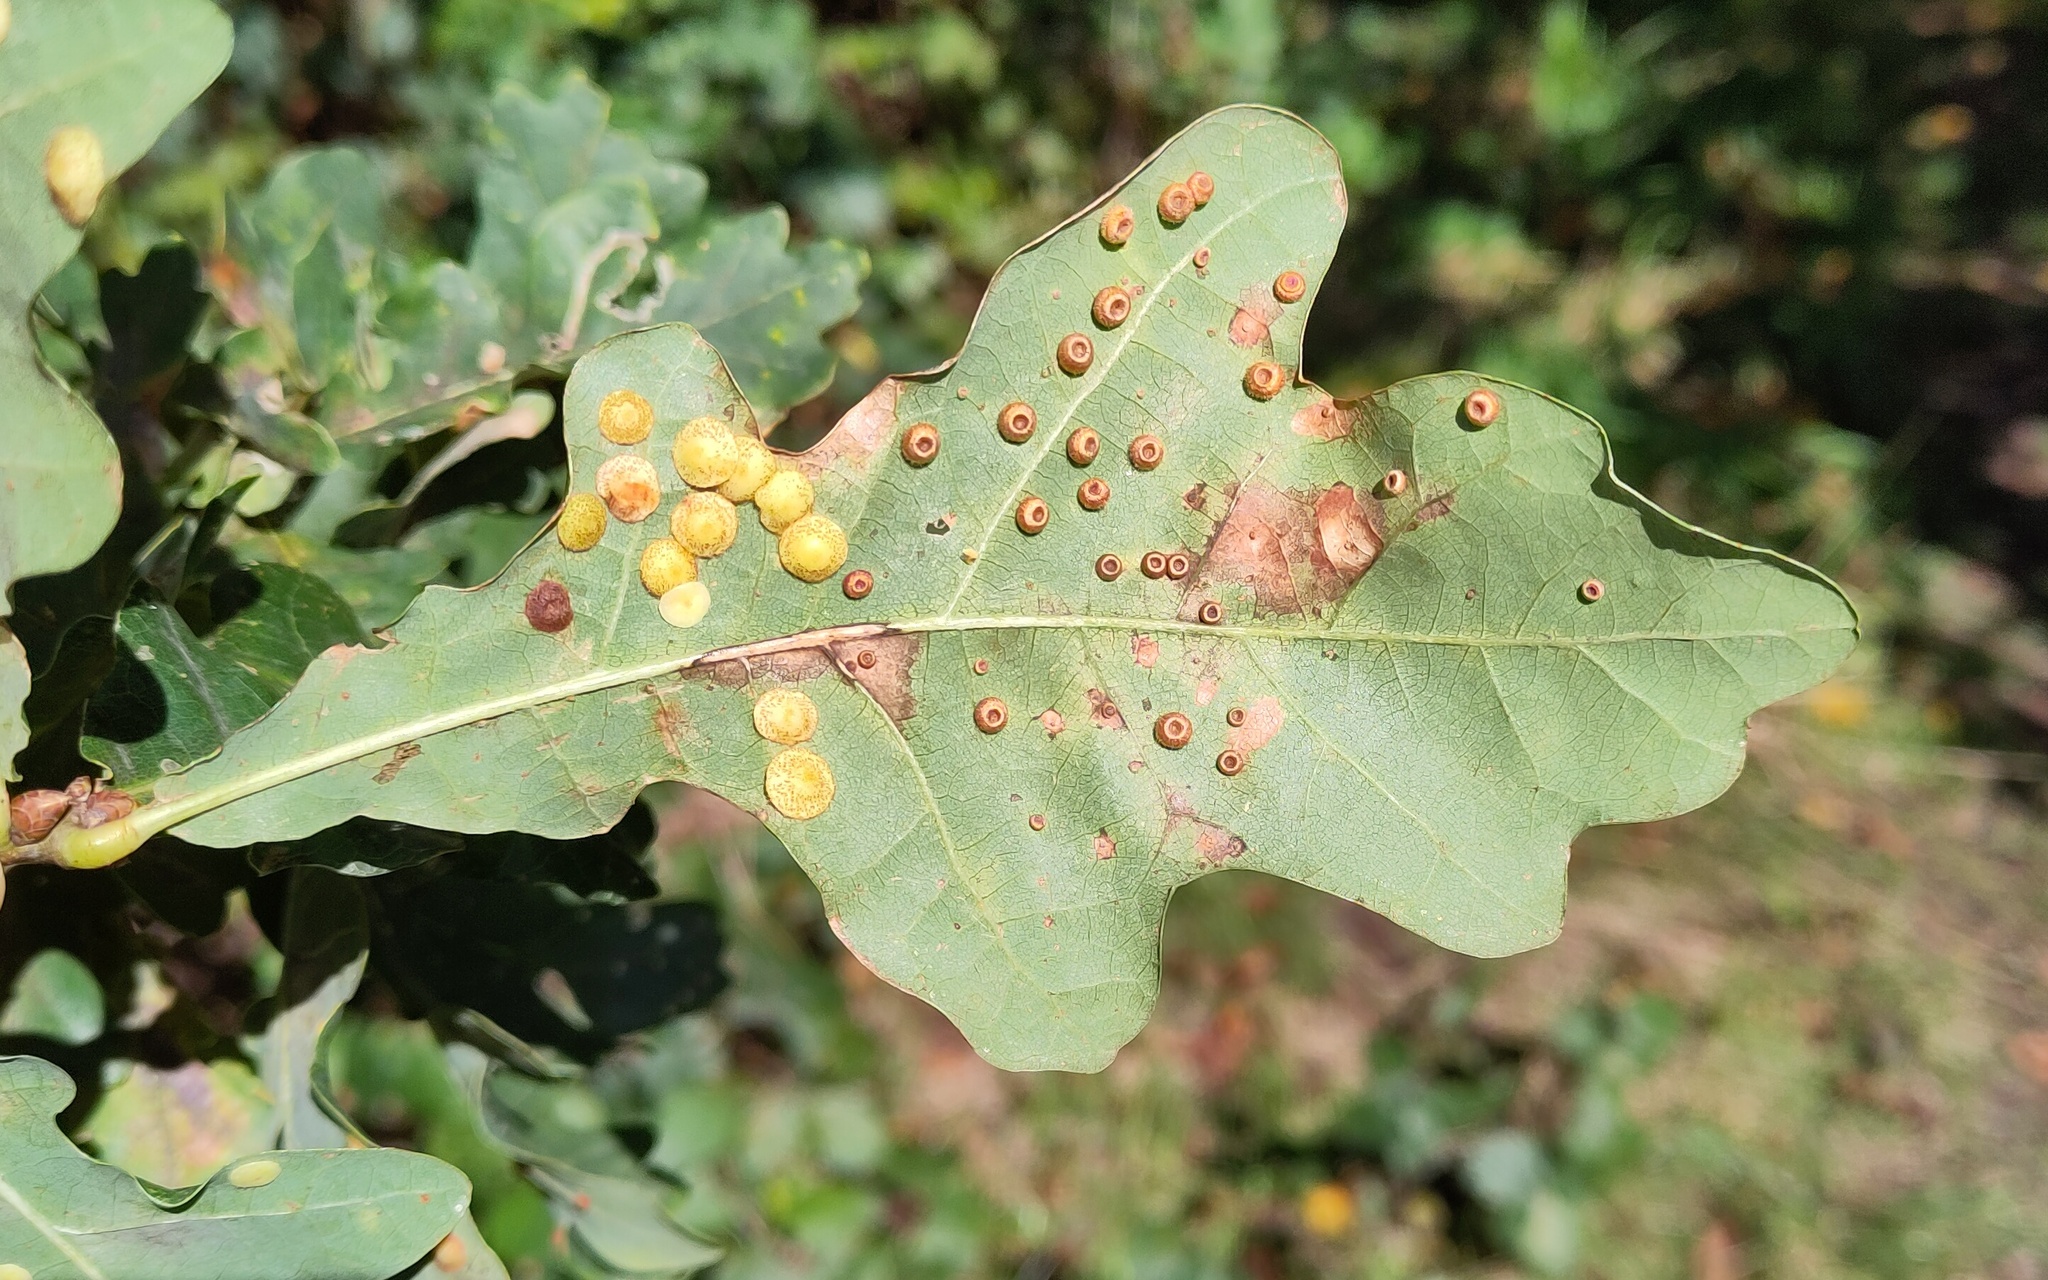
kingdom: Animalia
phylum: Arthropoda
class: Insecta
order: Hymenoptera
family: Cynipidae
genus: Neuroterus
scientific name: Neuroterus numismalis
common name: Silk-button spangle gall
